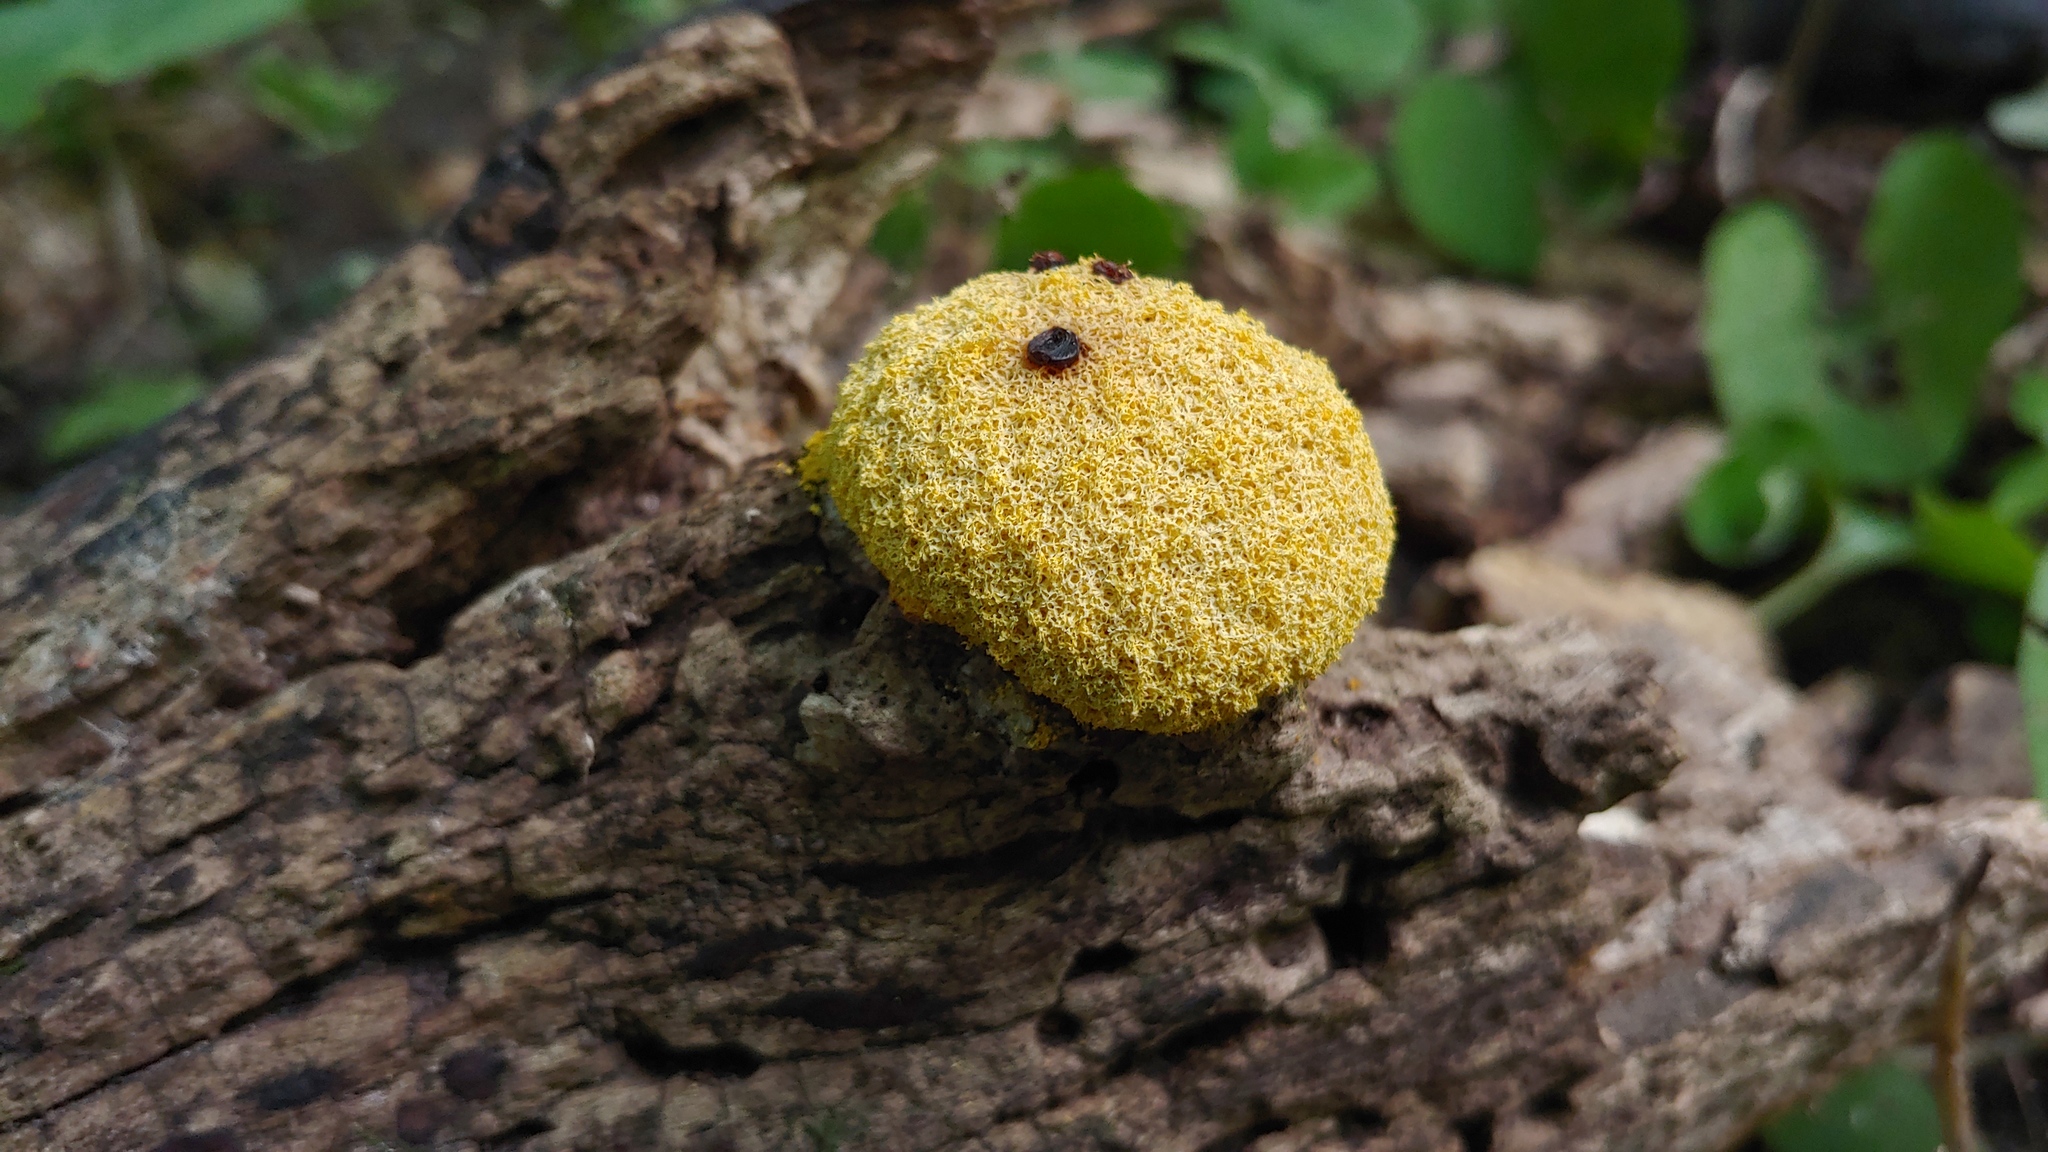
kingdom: Protozoa
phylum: Mycetozoa
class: Myxomycetes
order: Physarales
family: Physaraceae
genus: Fuligo
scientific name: Fuligo septica
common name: Dog vomit slime mold
